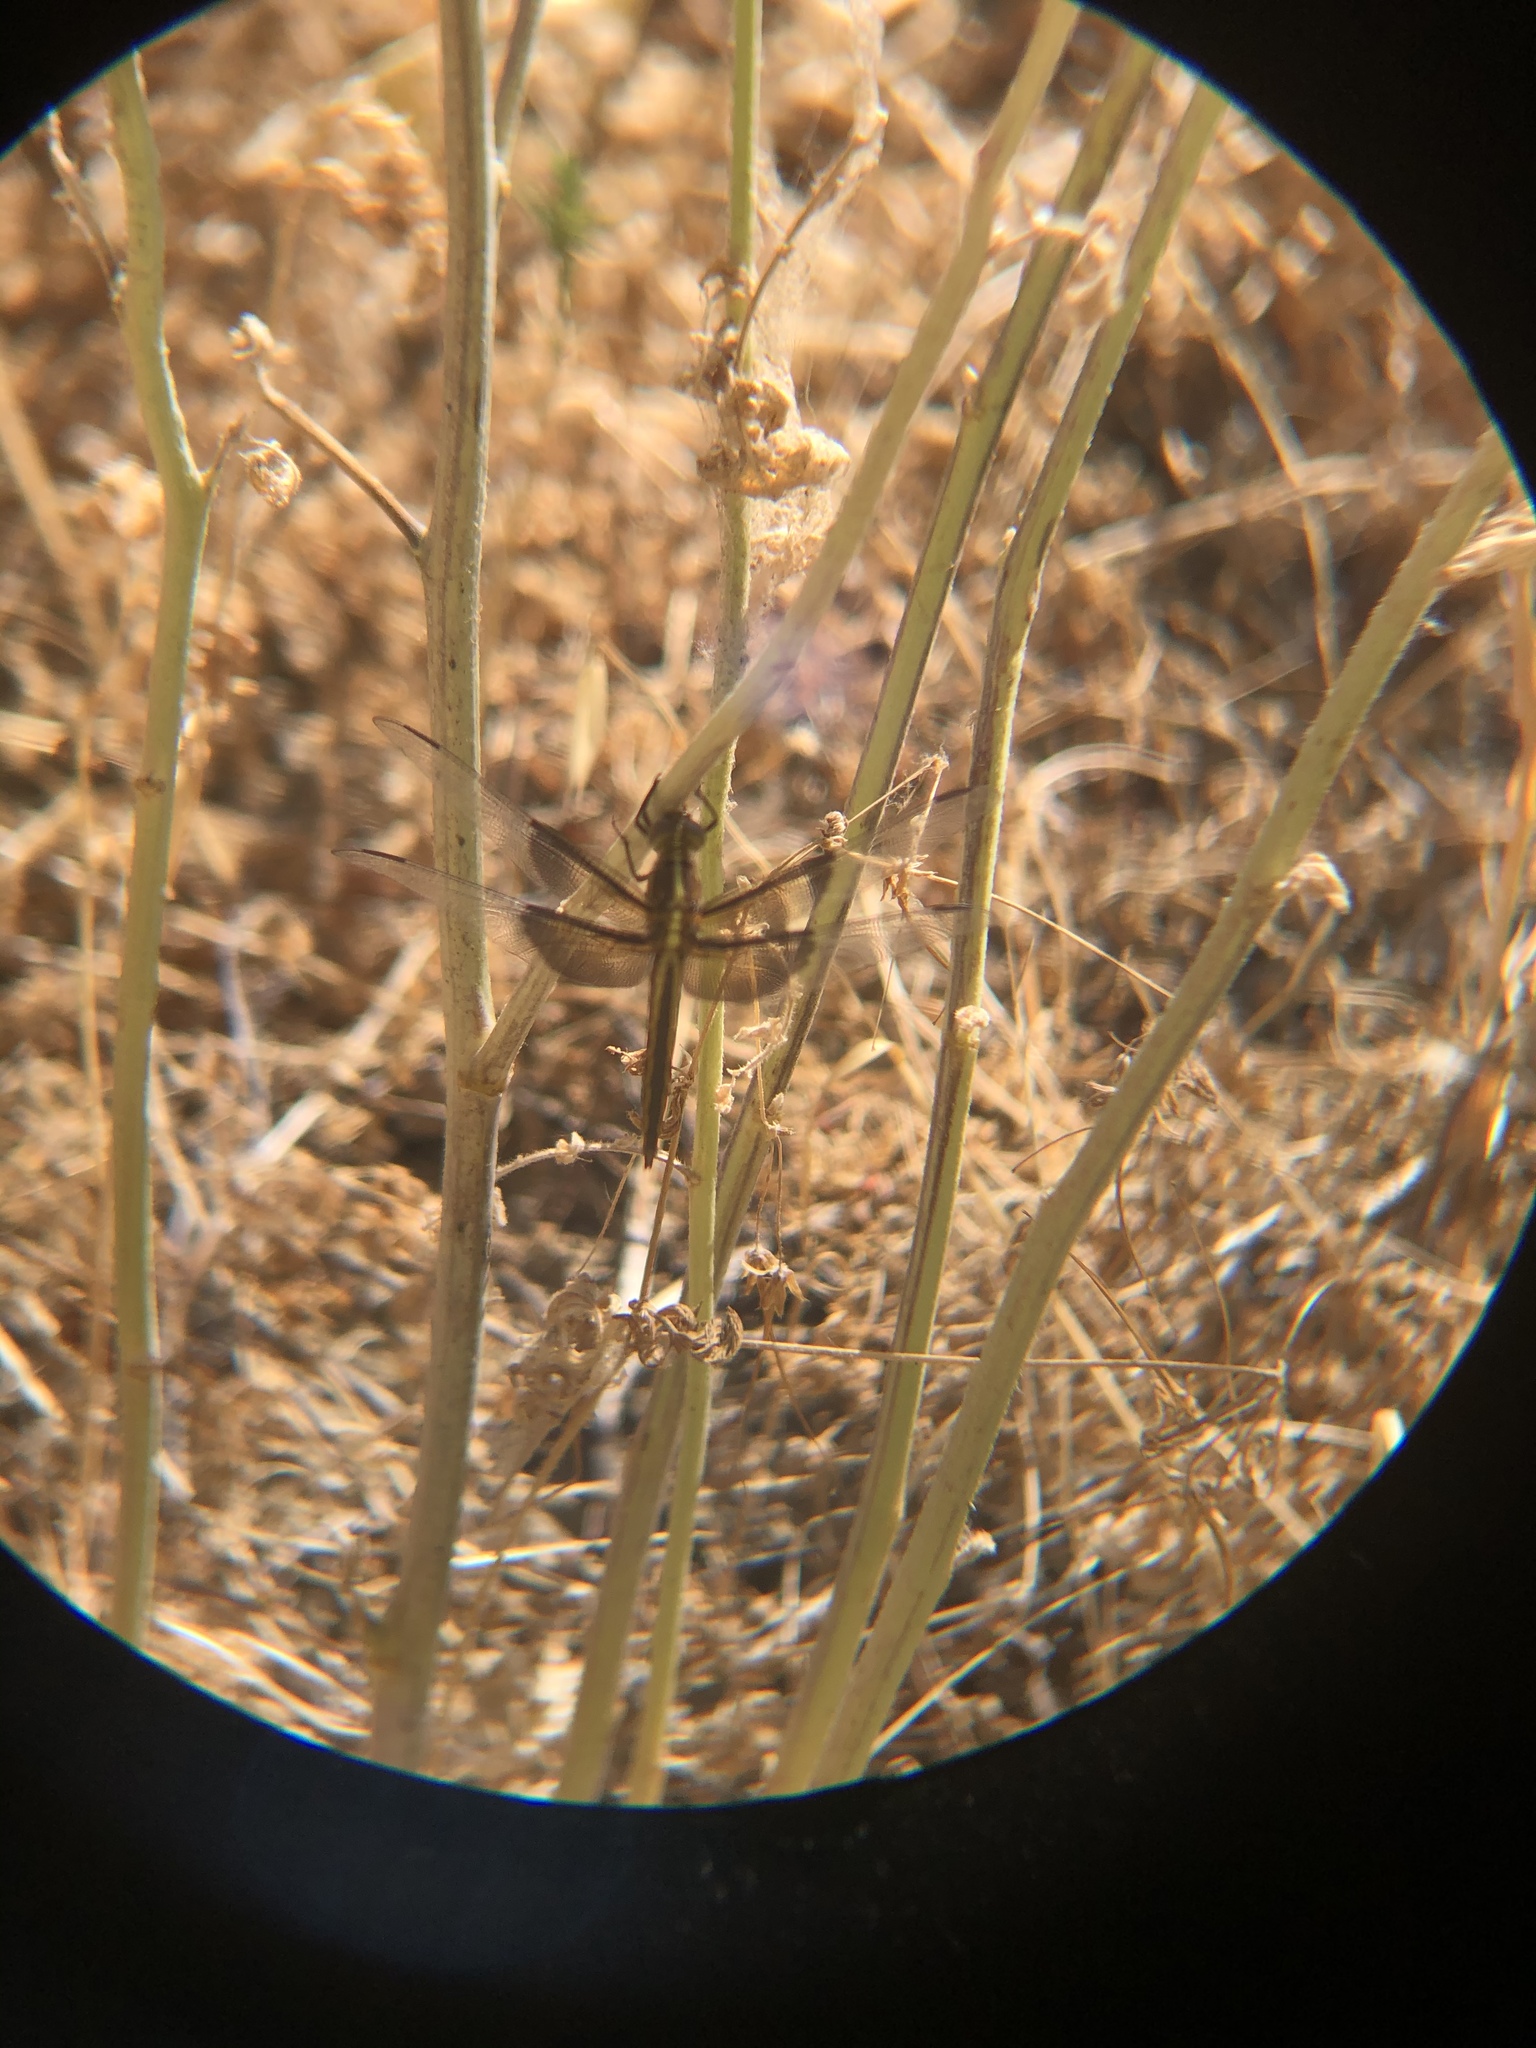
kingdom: Animalia
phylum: Arthropoda
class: Insecta
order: Odonata
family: Libellulidae
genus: Libellula
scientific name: Libellula luctuosa
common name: Widow skimmer
